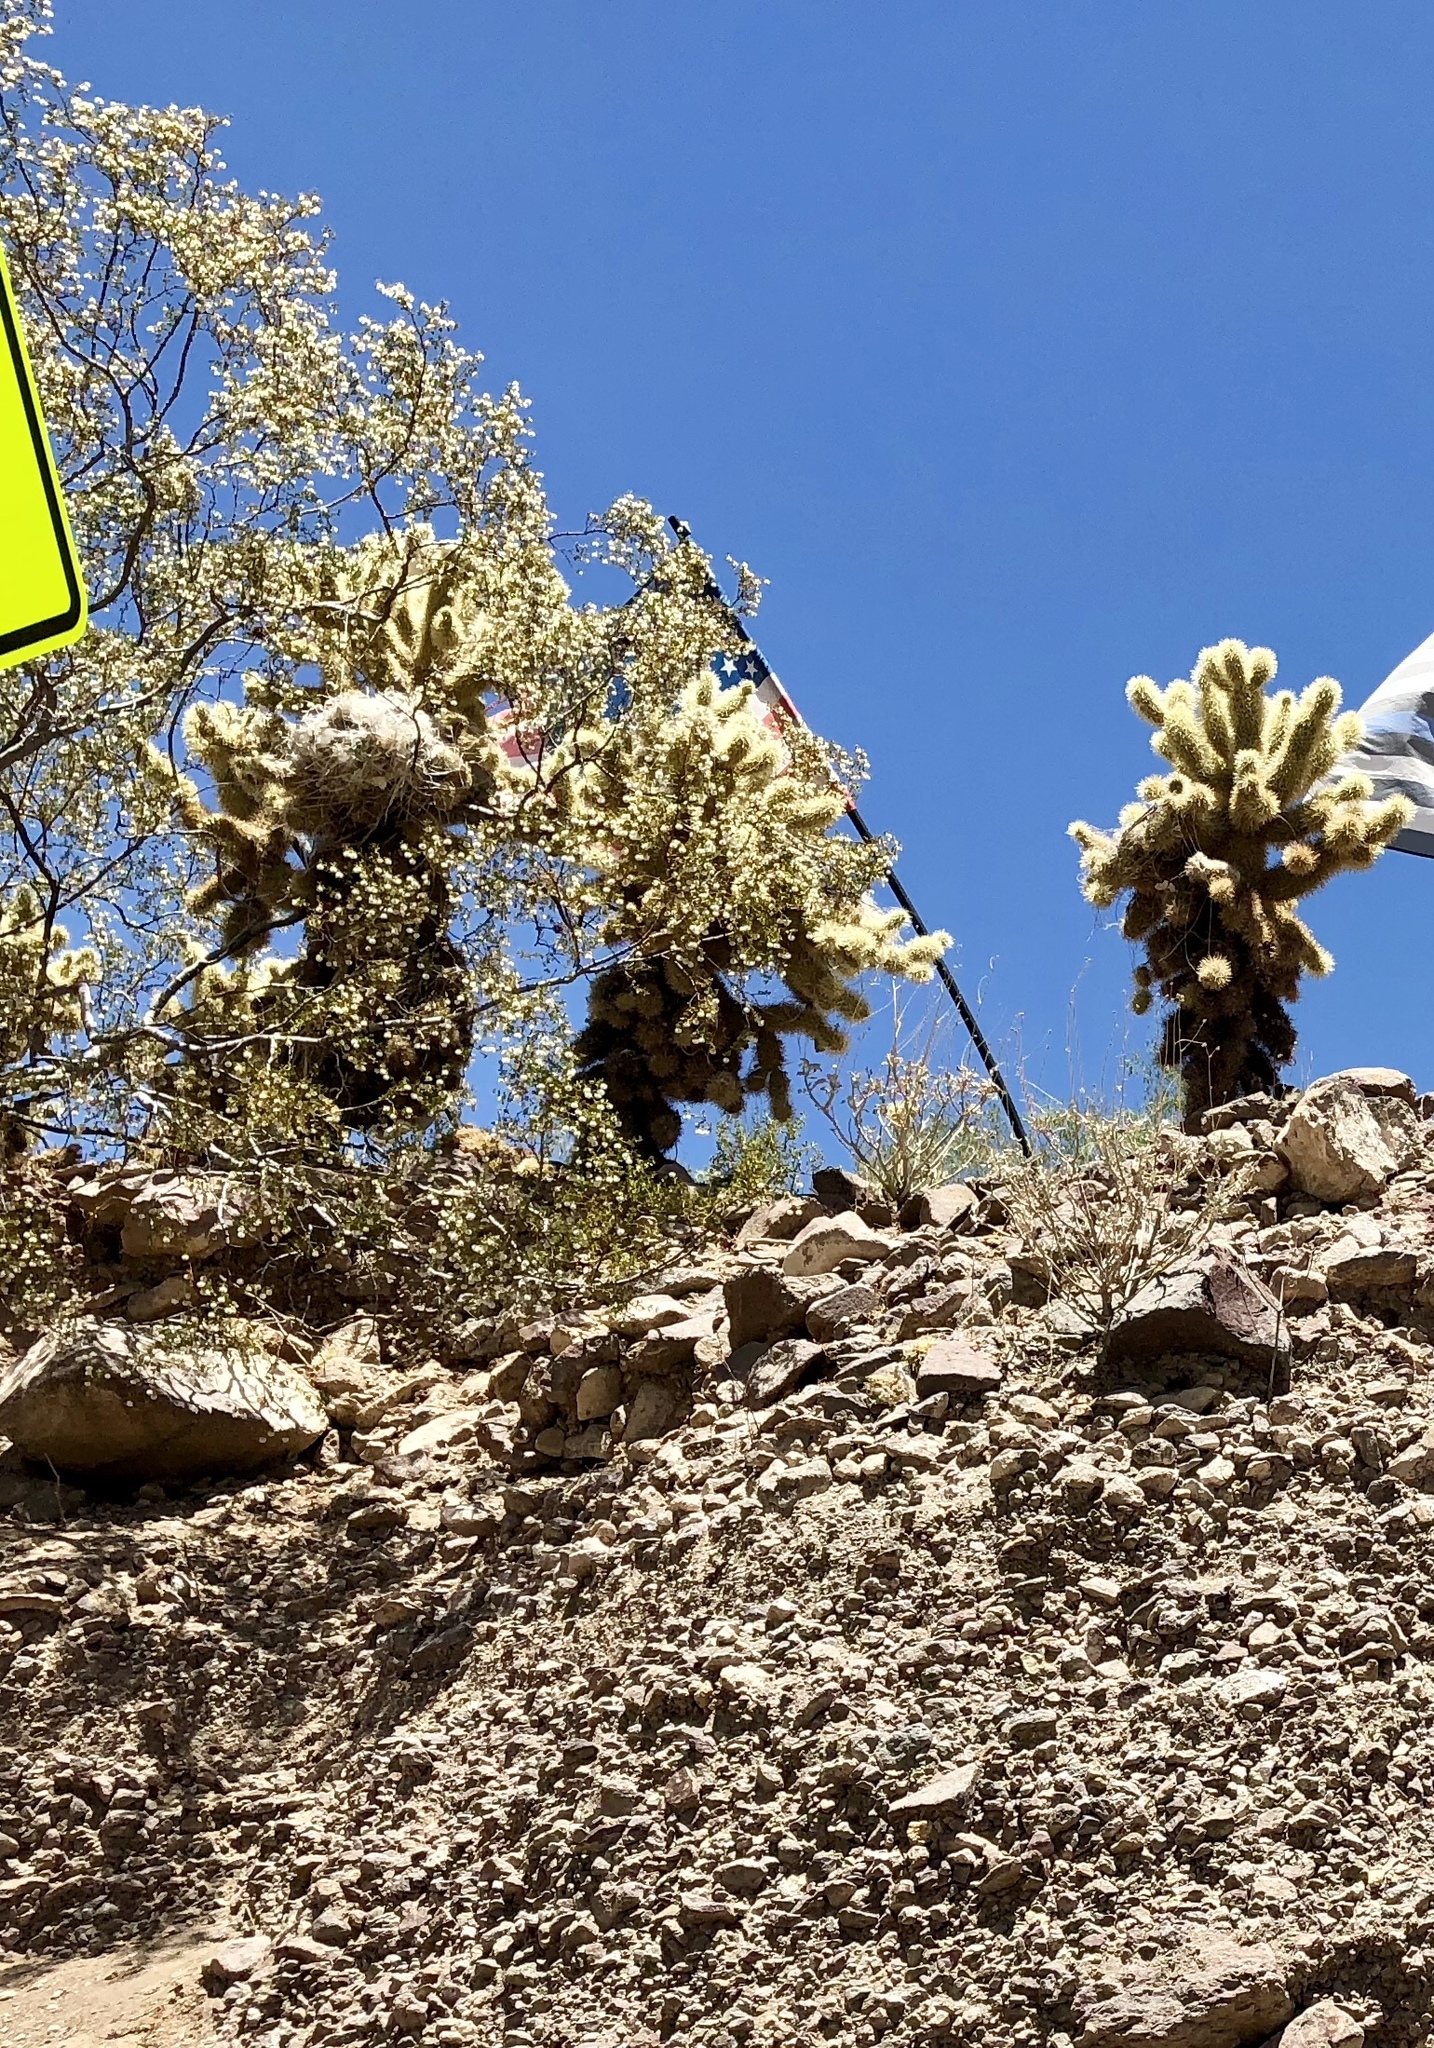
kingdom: Plantae
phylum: Tracheophyta
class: Magnoliopsida
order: Caryophyllales
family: Cactaceae
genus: Cylindropuntia
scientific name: Cylindropuntia fosbergii
